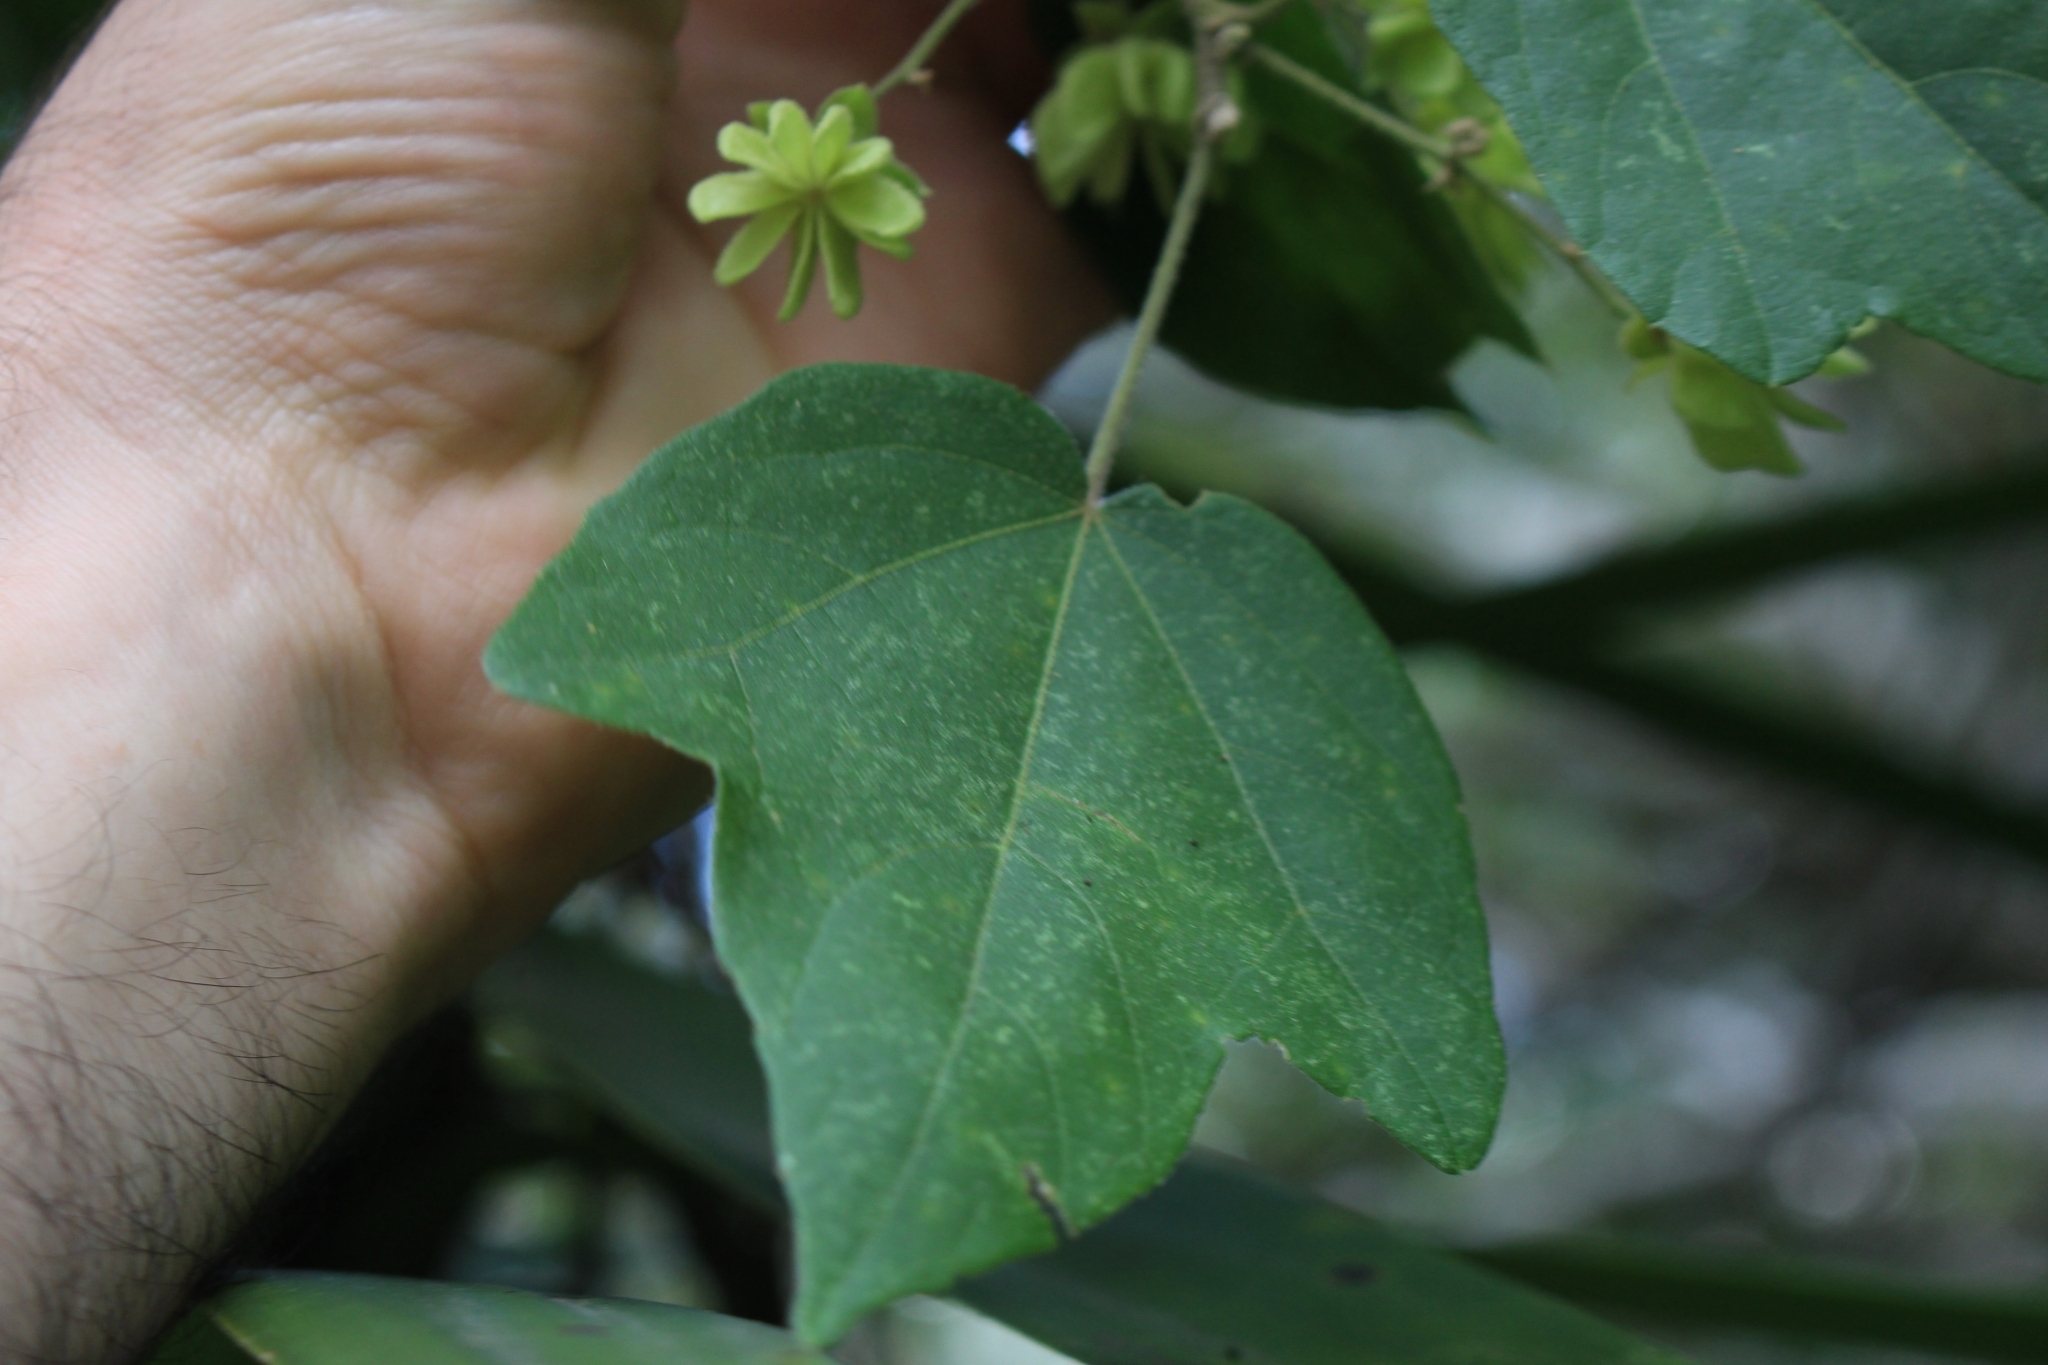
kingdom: Plantae
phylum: Tracheophyta
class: Magnoliopsida
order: Malvales
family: Malvaceae
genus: Robinsonella
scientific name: Robinsonella lindeniana
